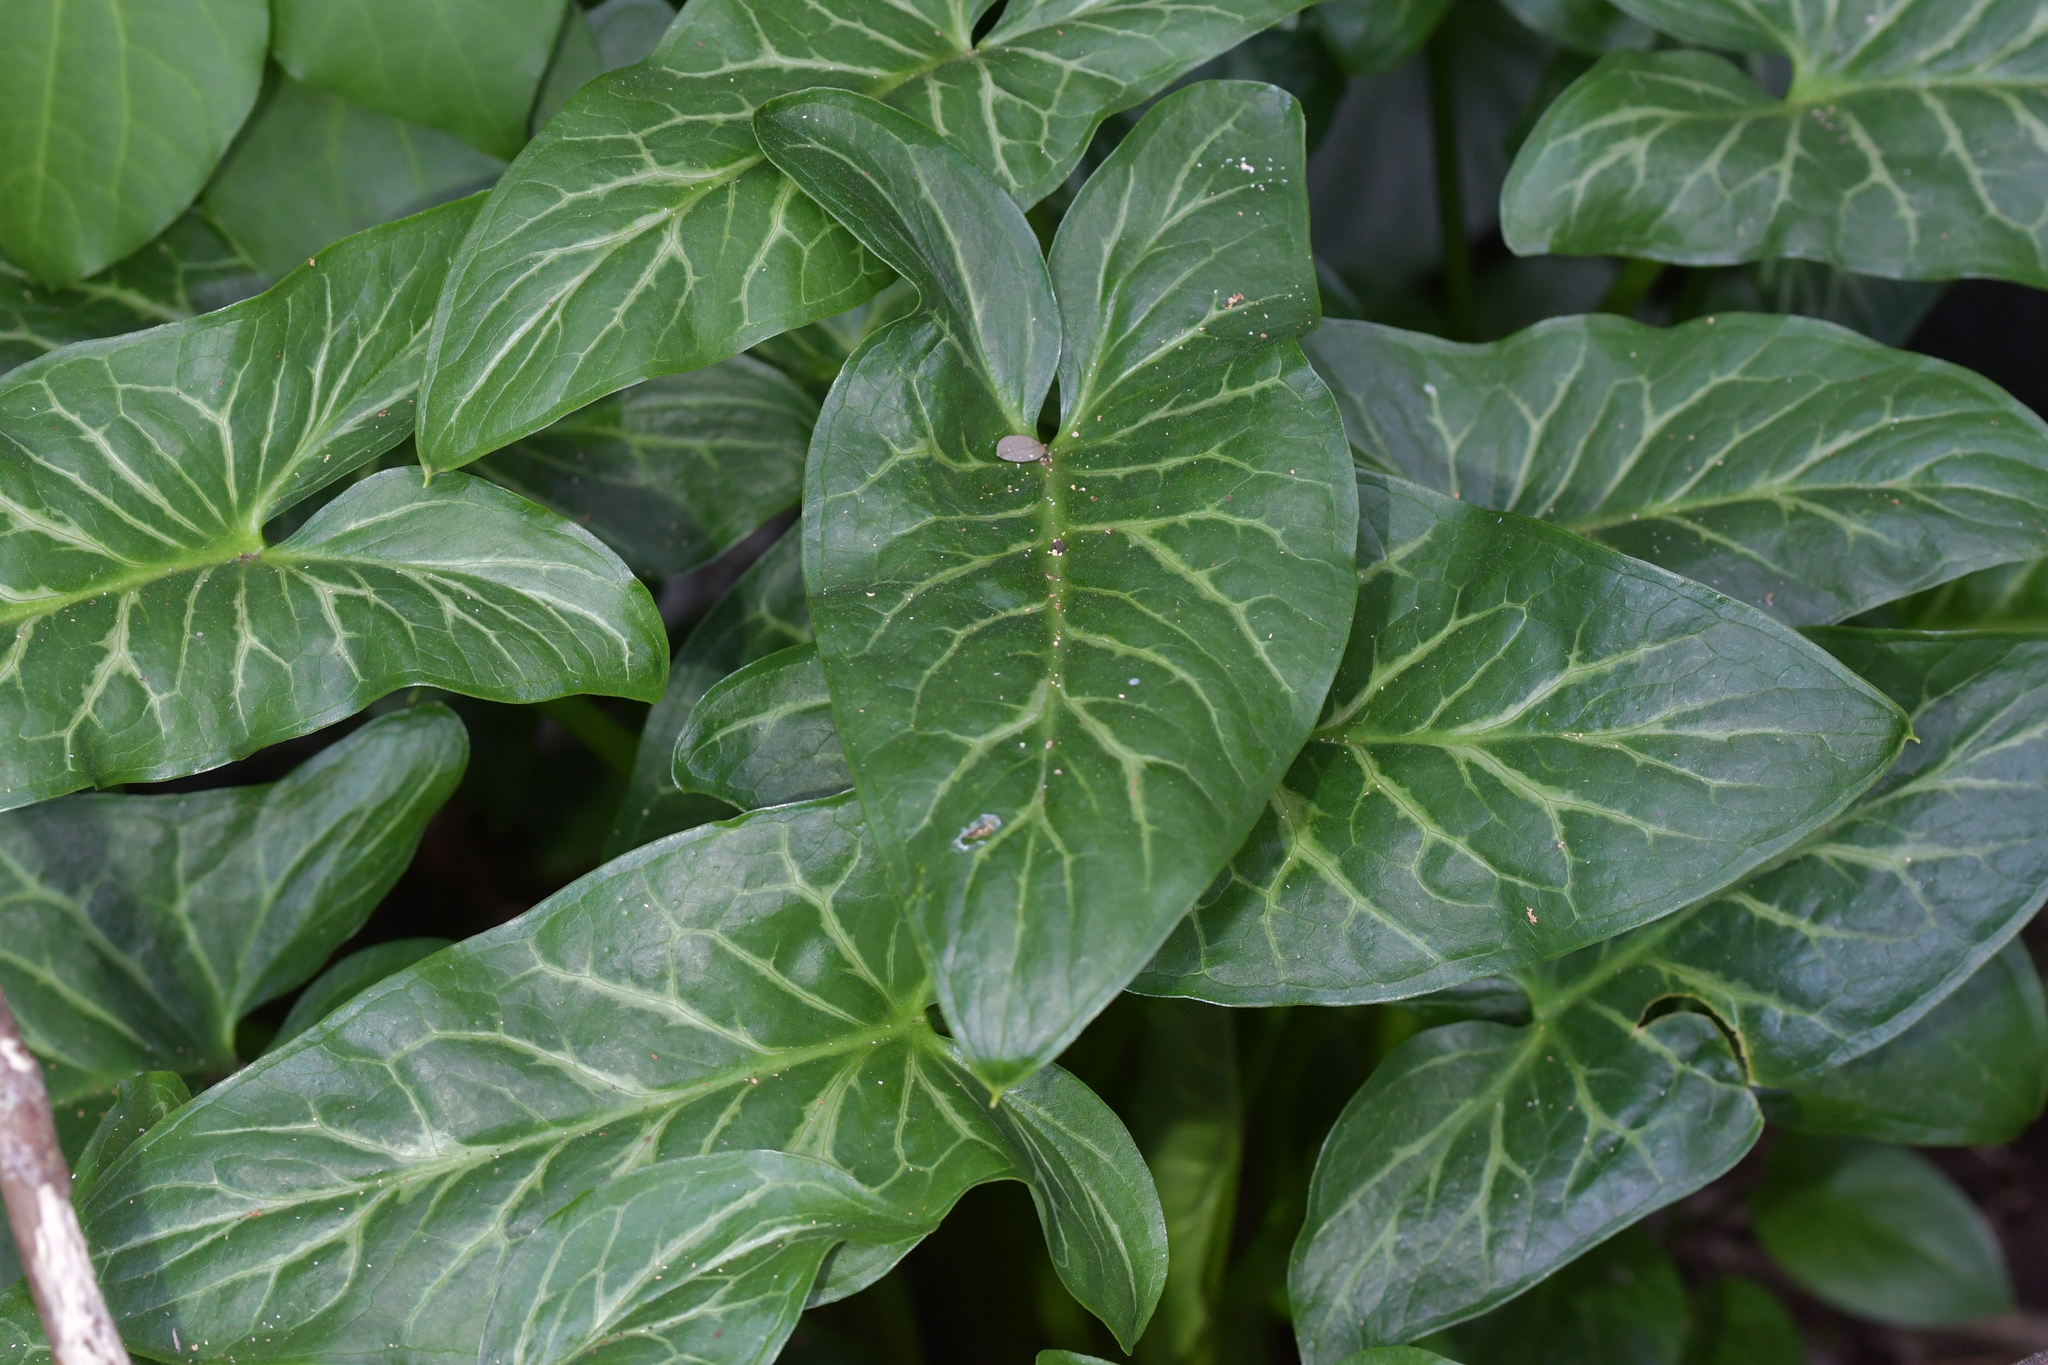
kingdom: Plantae
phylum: Tracheophyta
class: Liliopsida
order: Alismatales
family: Araceae
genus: Arum
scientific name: Arum italicum
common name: Italian lords-and-ladies
